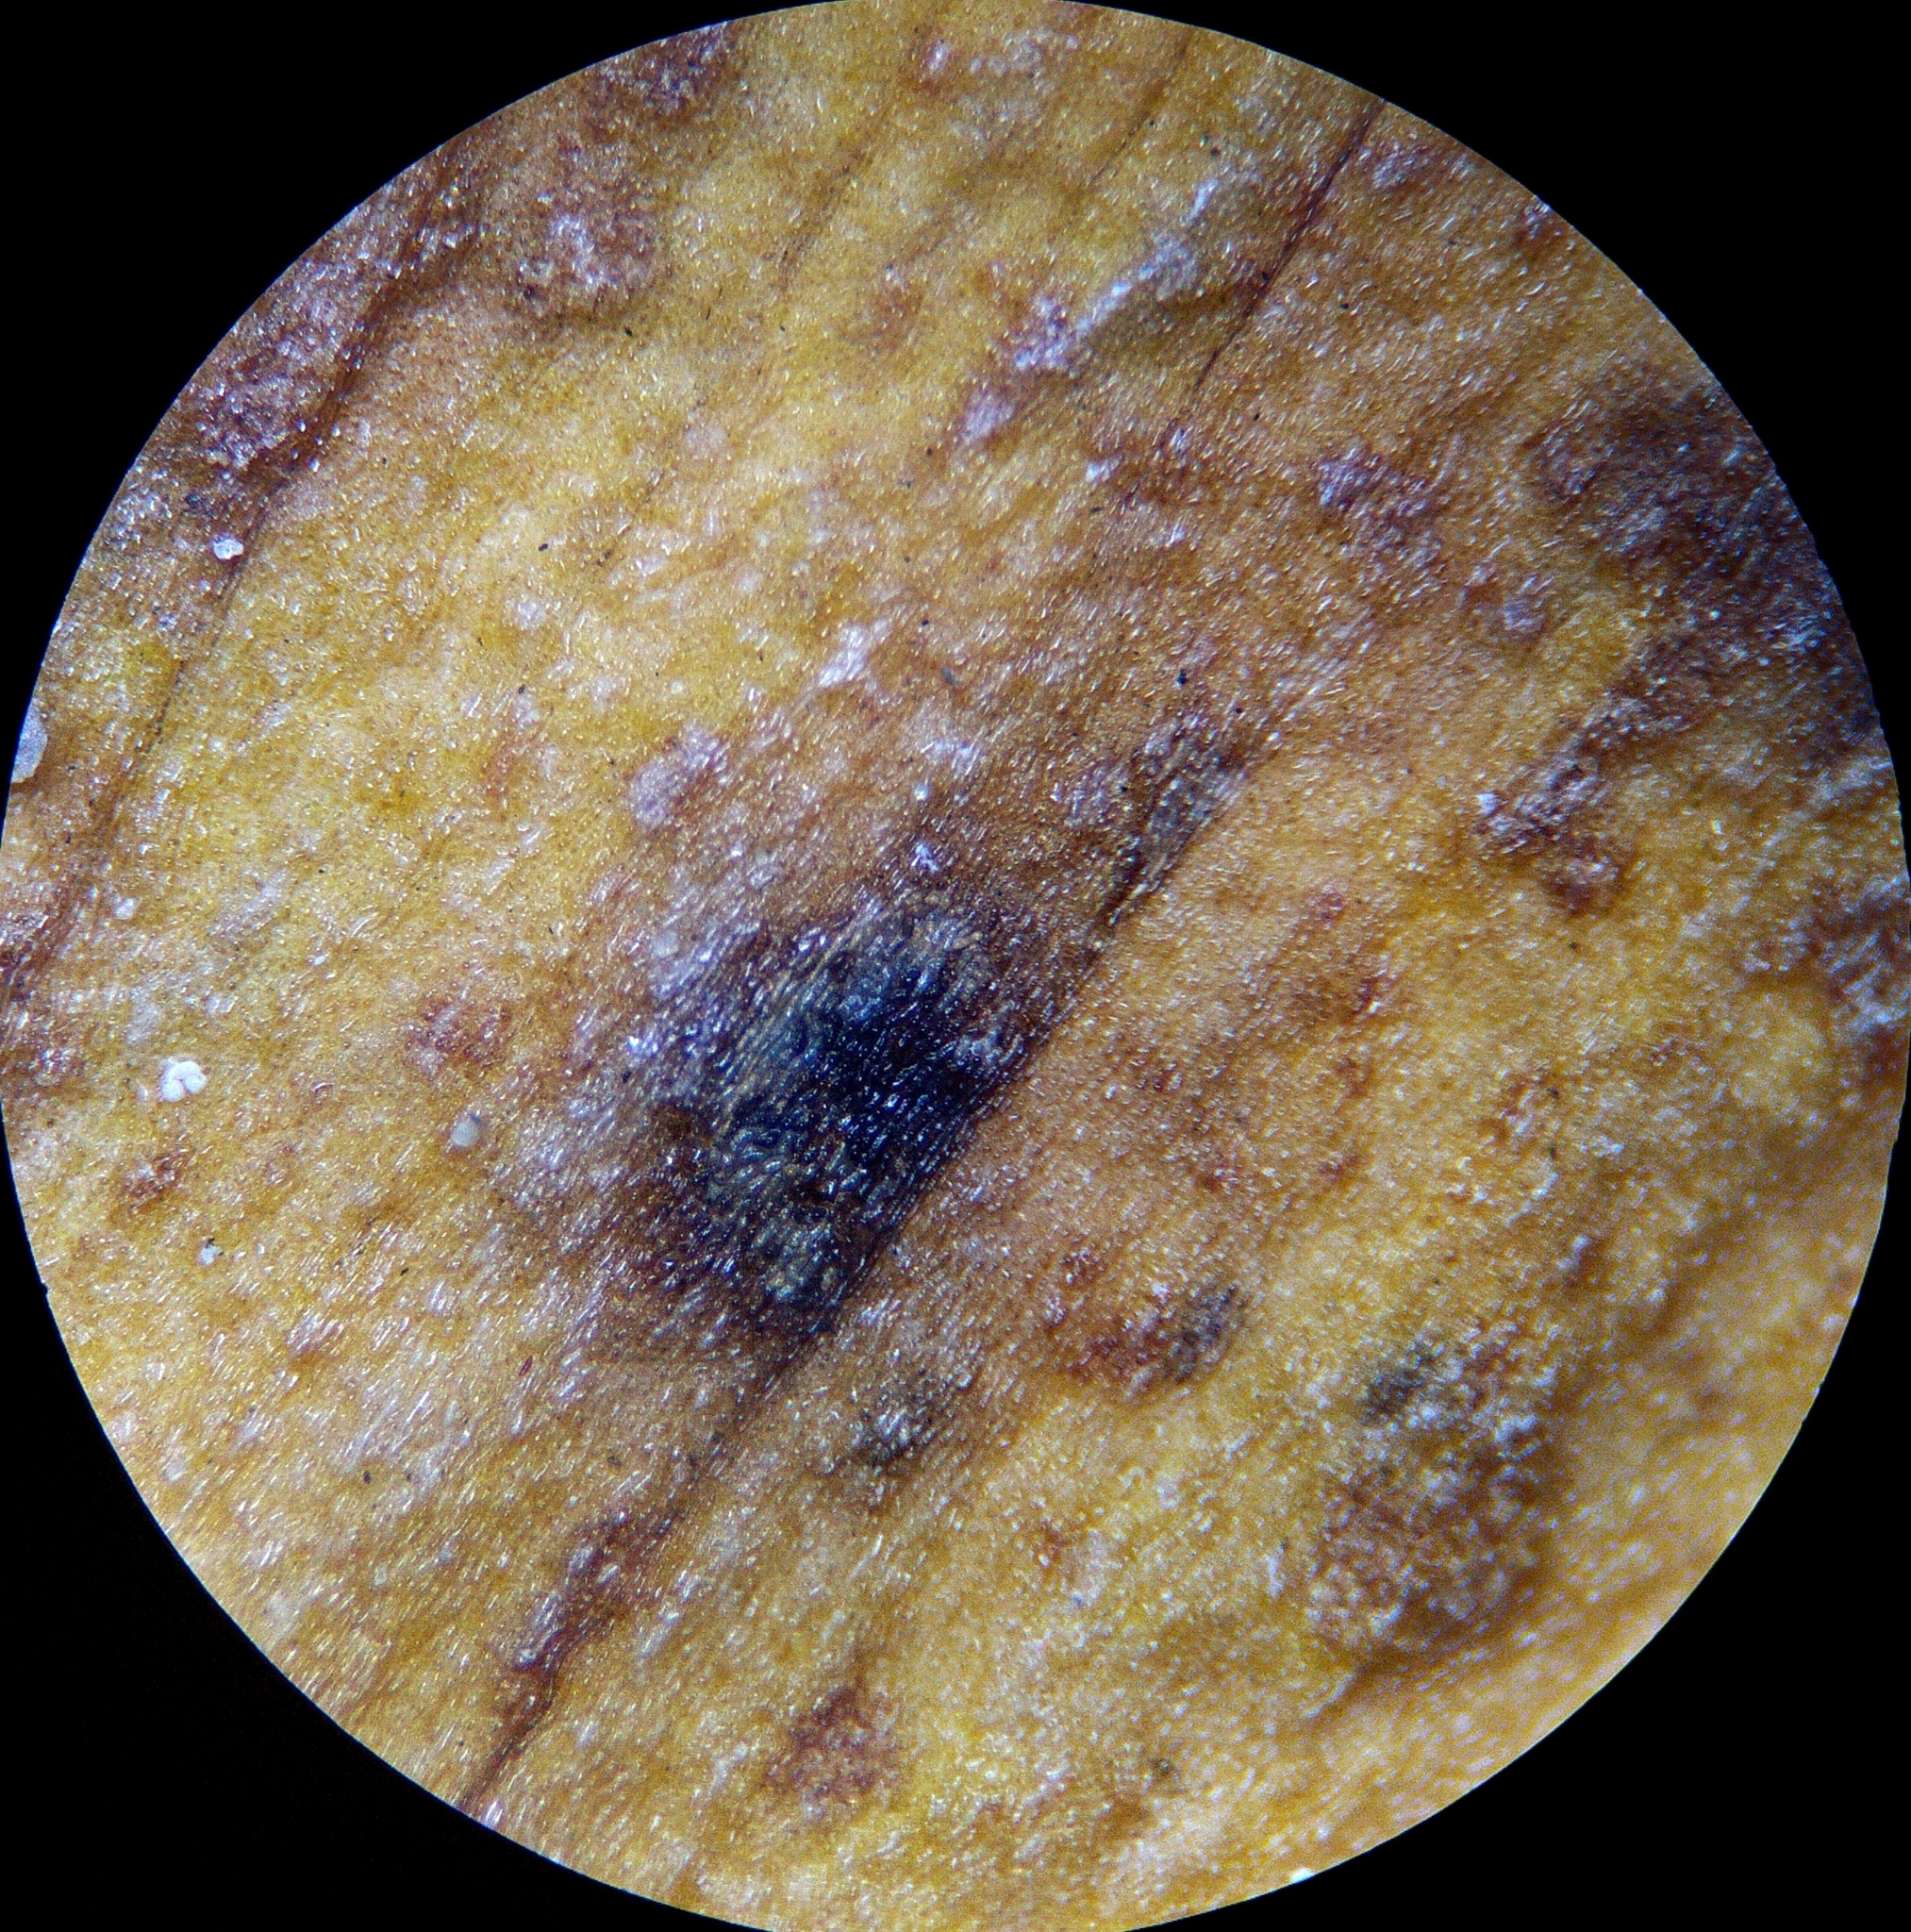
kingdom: Fungi
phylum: Basidiomycota
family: Bartheletiaceae
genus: Bartheletia
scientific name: Bartheletia paradoxa
